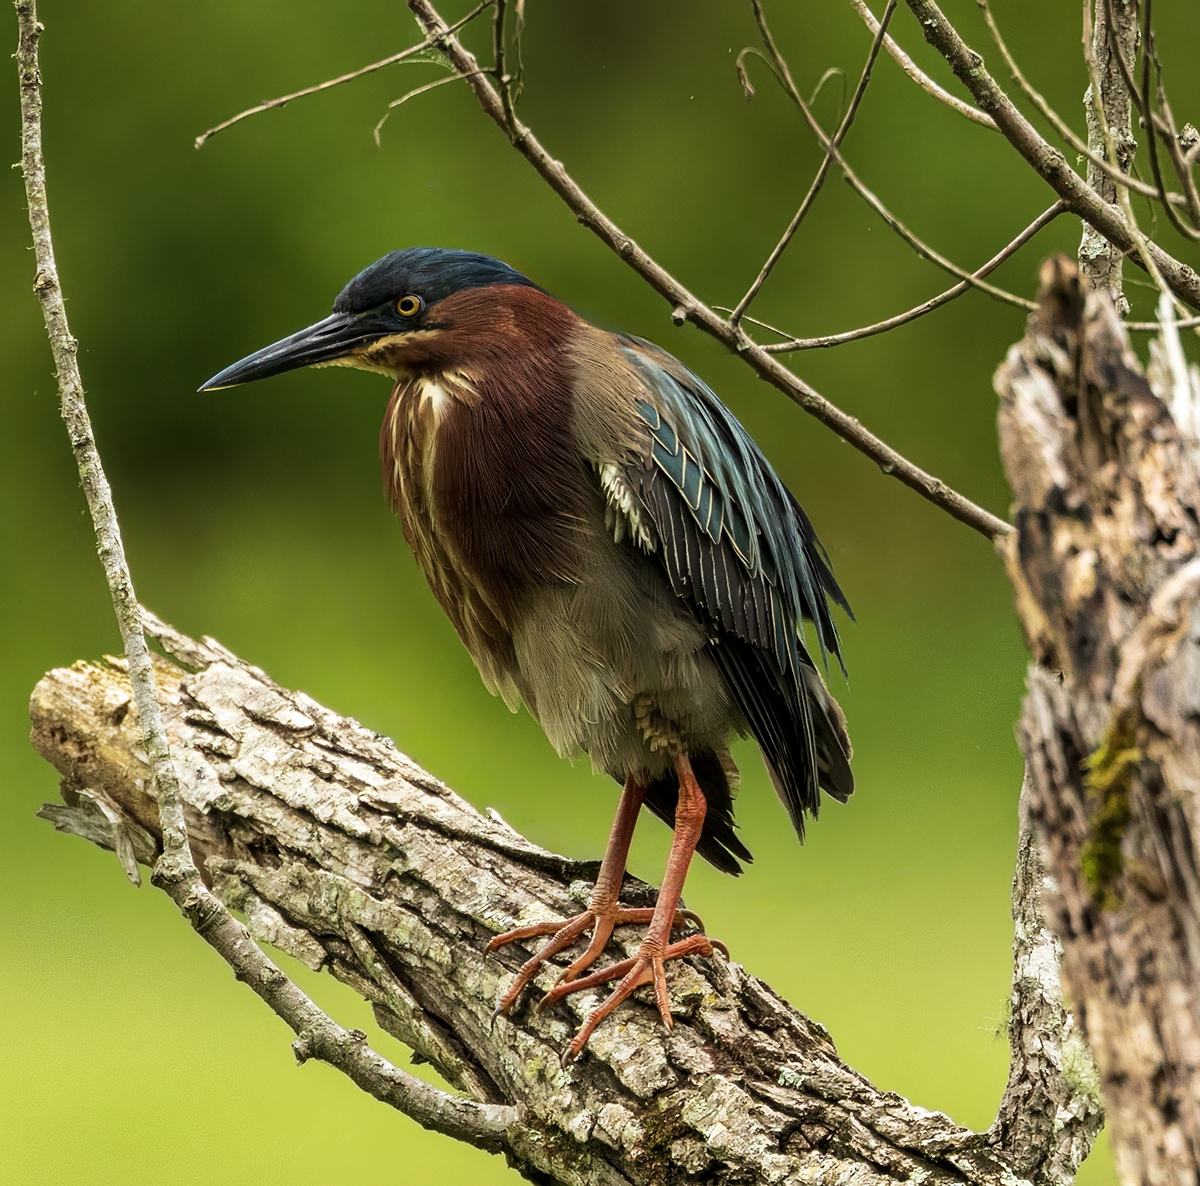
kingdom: Animalia
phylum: Chordata
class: Aves
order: Pelecaniformes
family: Ardeidae
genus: Butorides
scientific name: Butorides virescens
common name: Green heron
